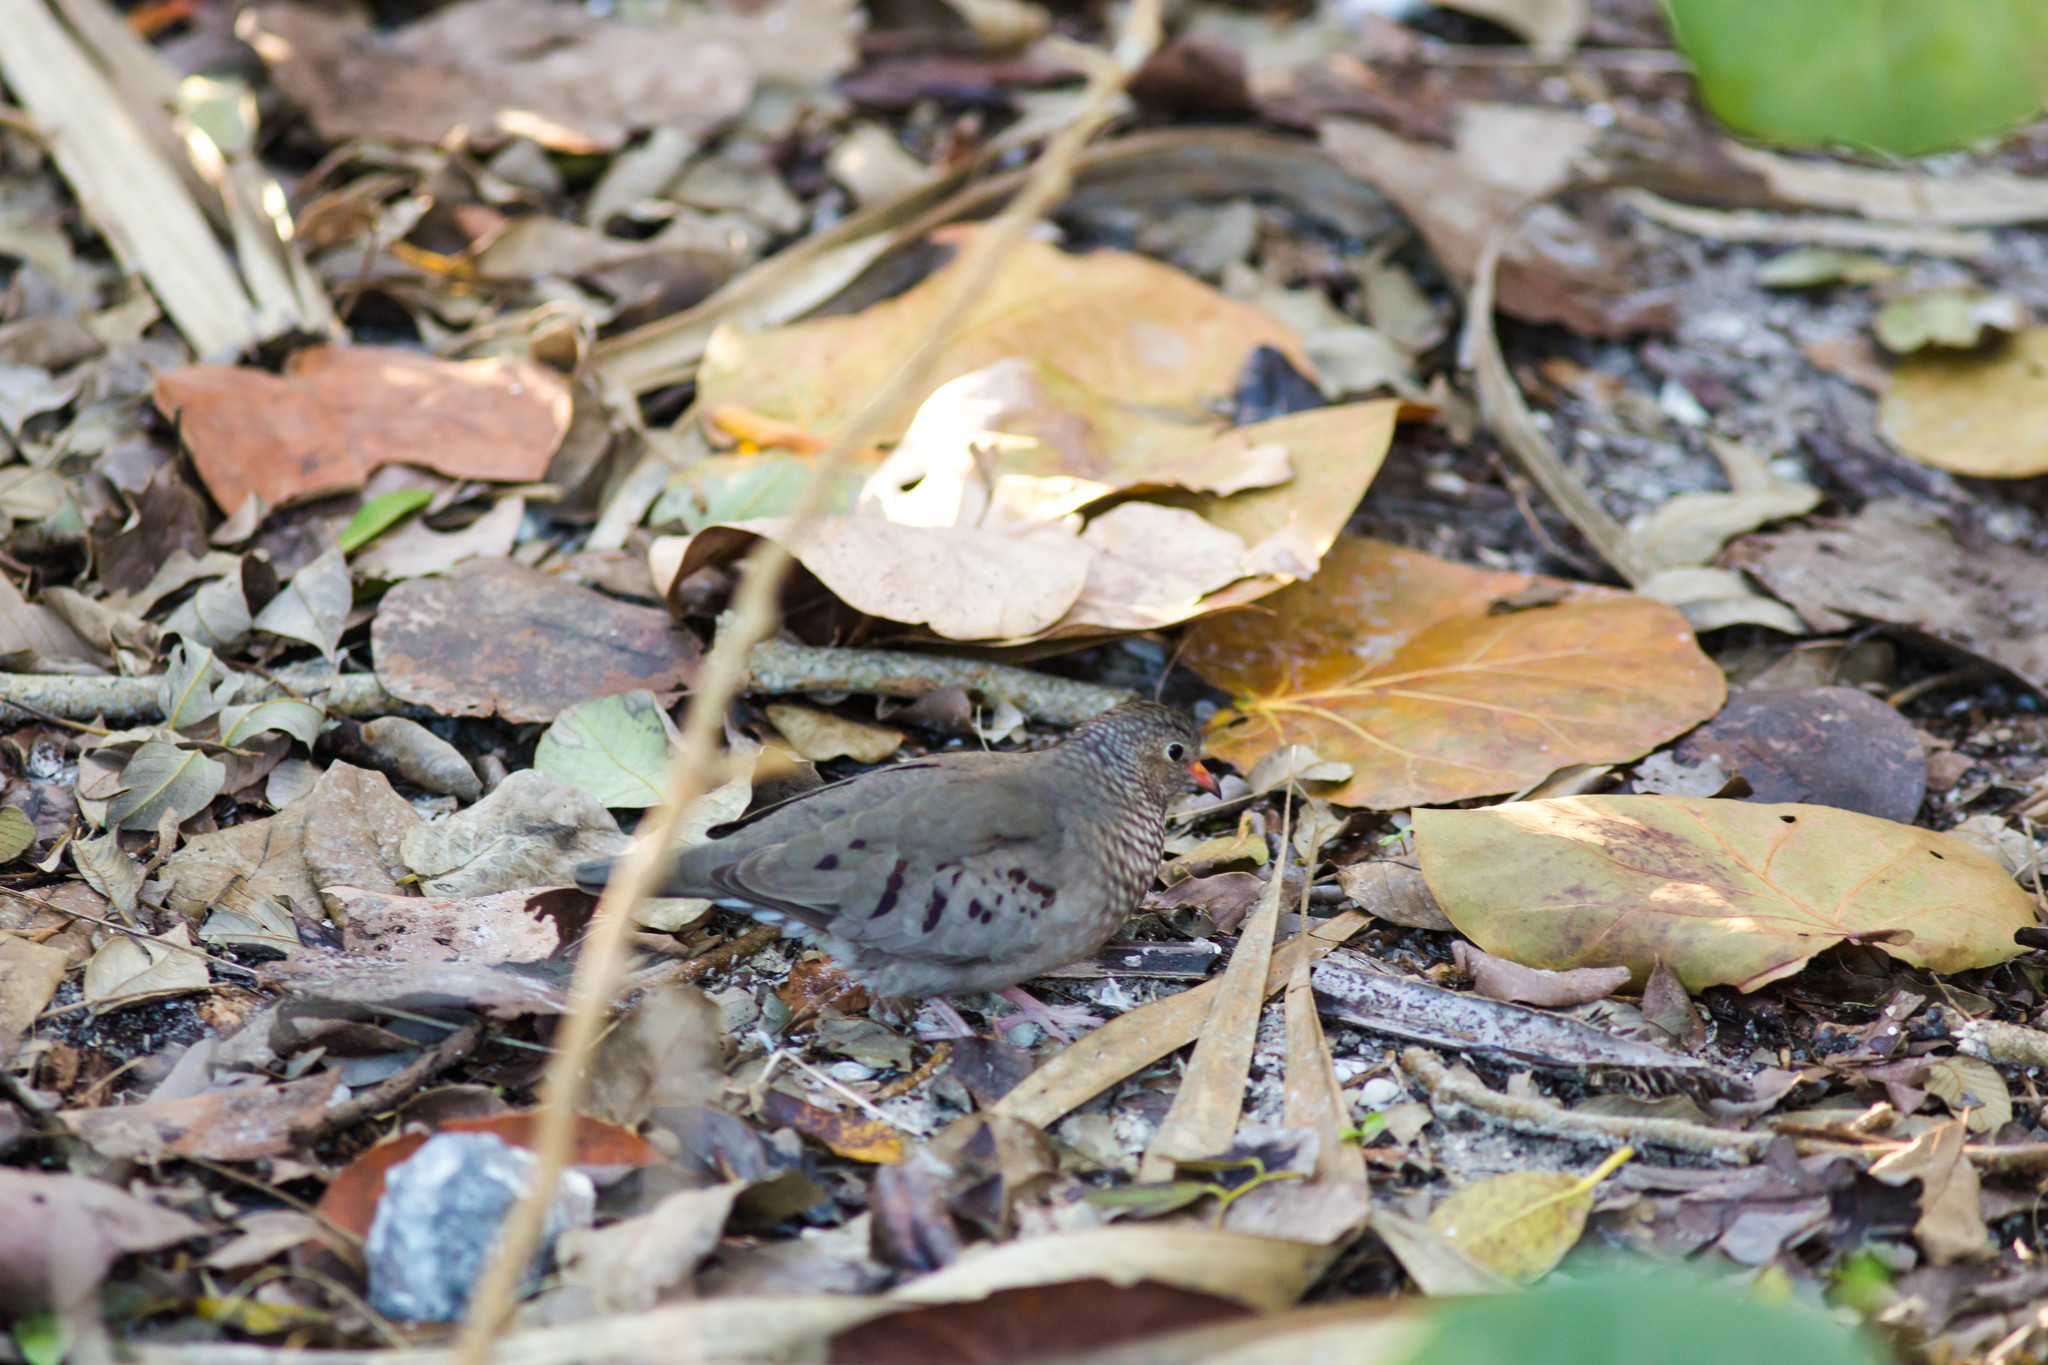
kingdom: Animalia
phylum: Chordata
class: Aves
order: Columbiformes
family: Columbidae
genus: Columbina
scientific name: Columbina passerina
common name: Common ground-dove
